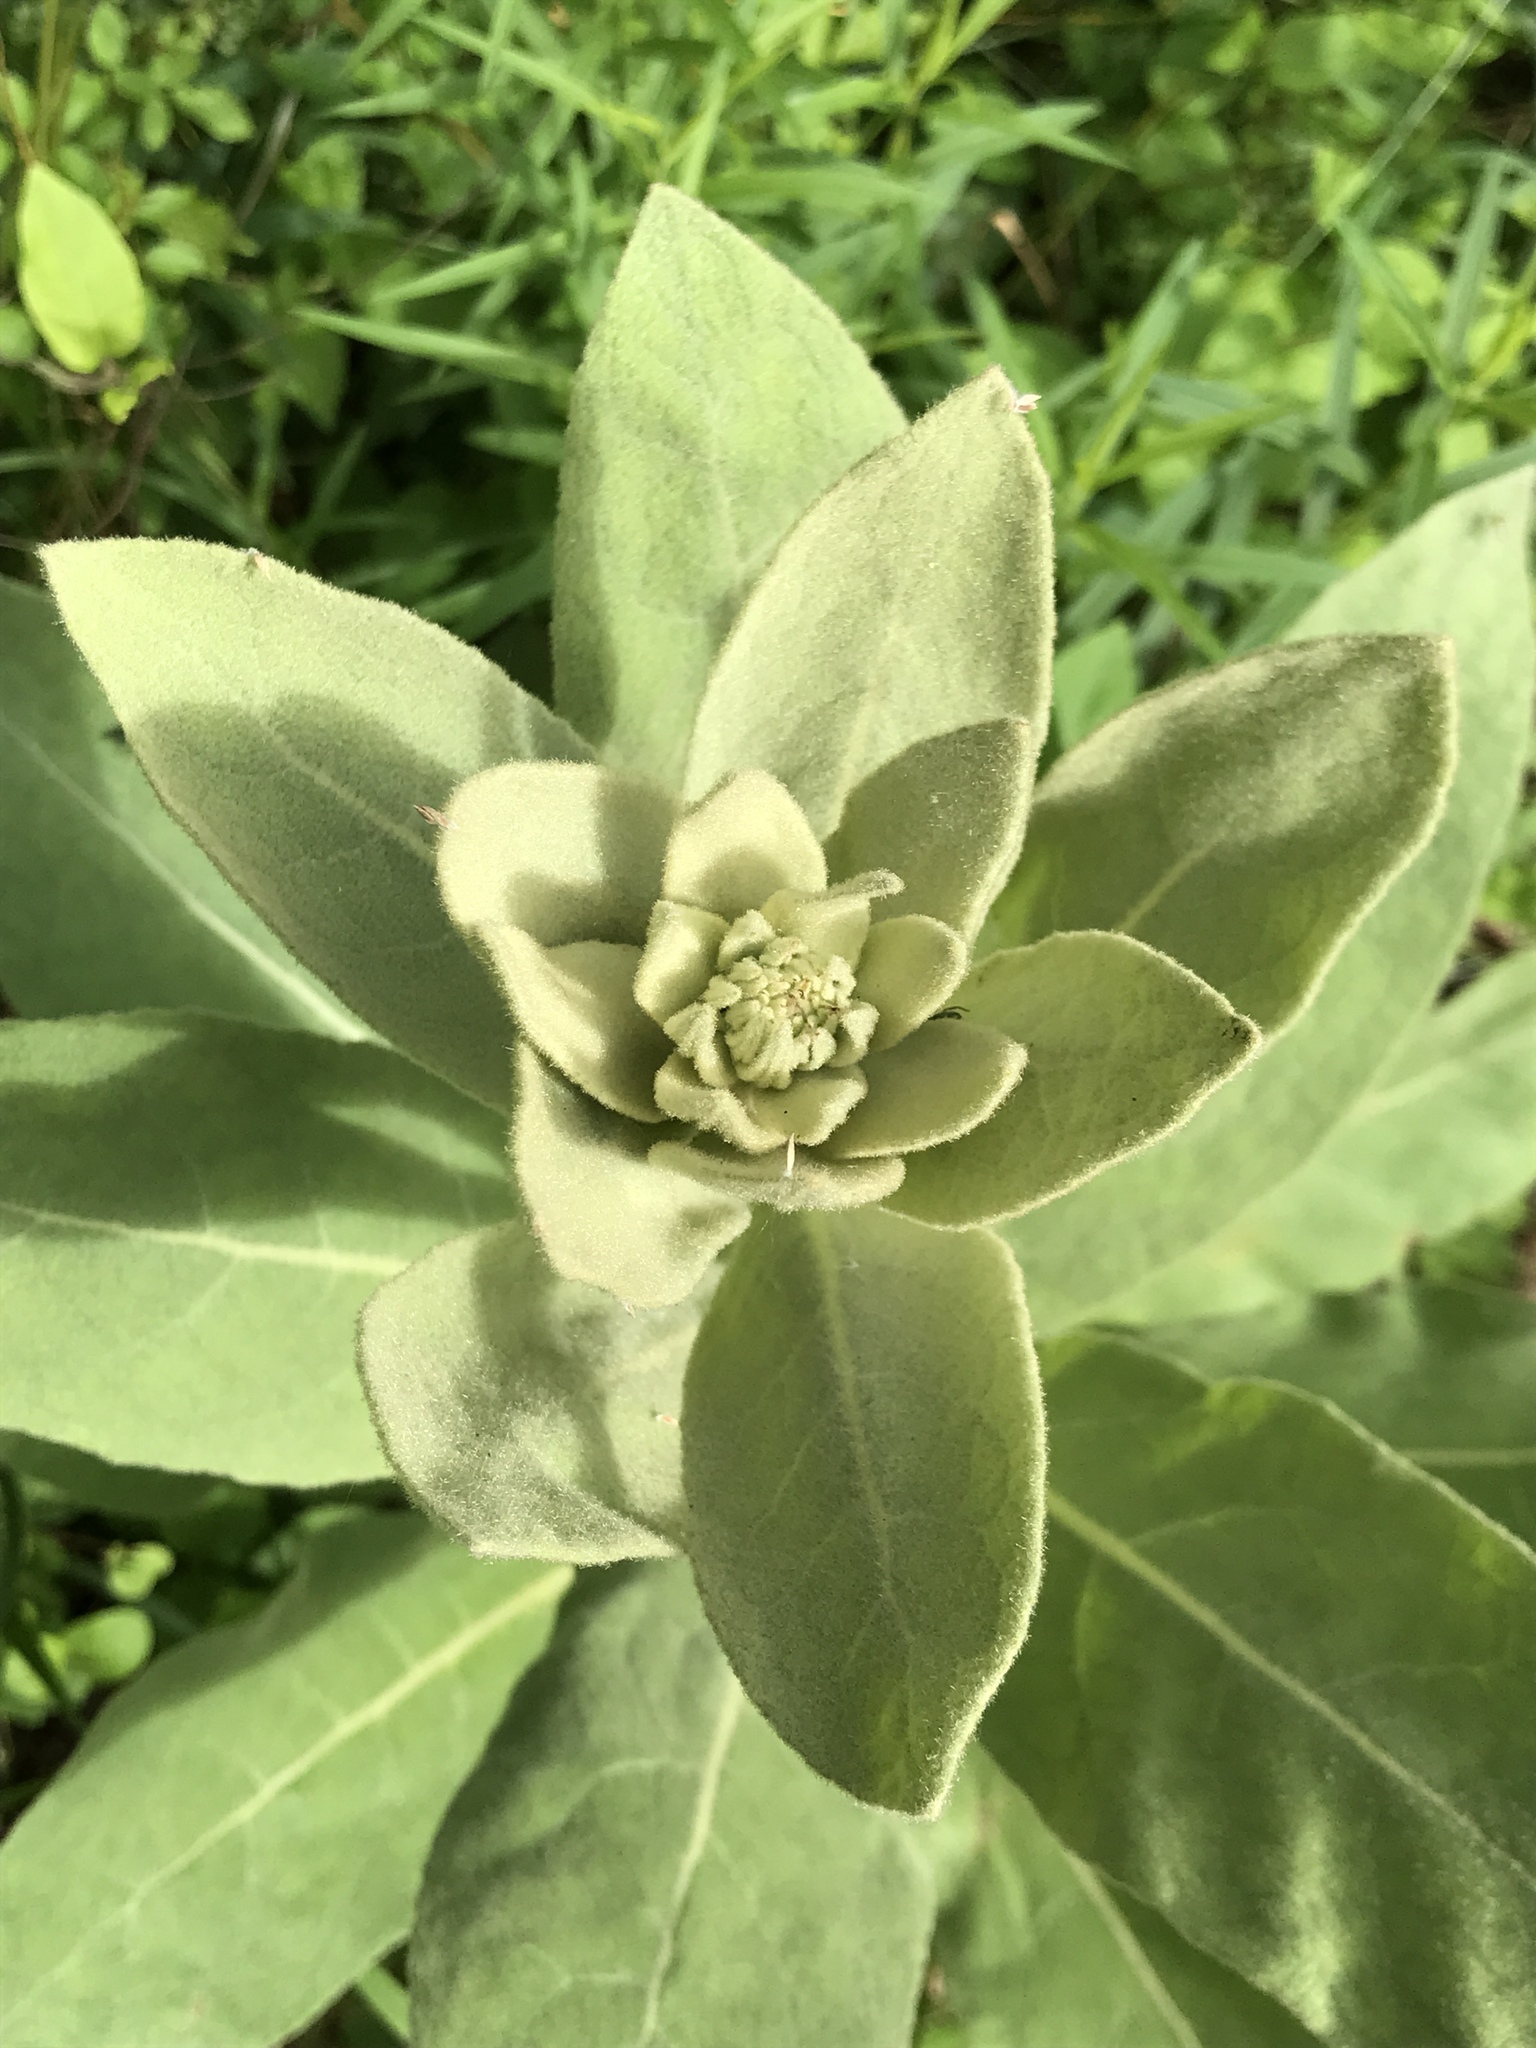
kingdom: Plantae
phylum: Tracheophyta
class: Magnoliopsida
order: Lamiales
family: Scrophulariaceae
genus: Verbascum
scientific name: Verbascum thapsus
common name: Common mullein
